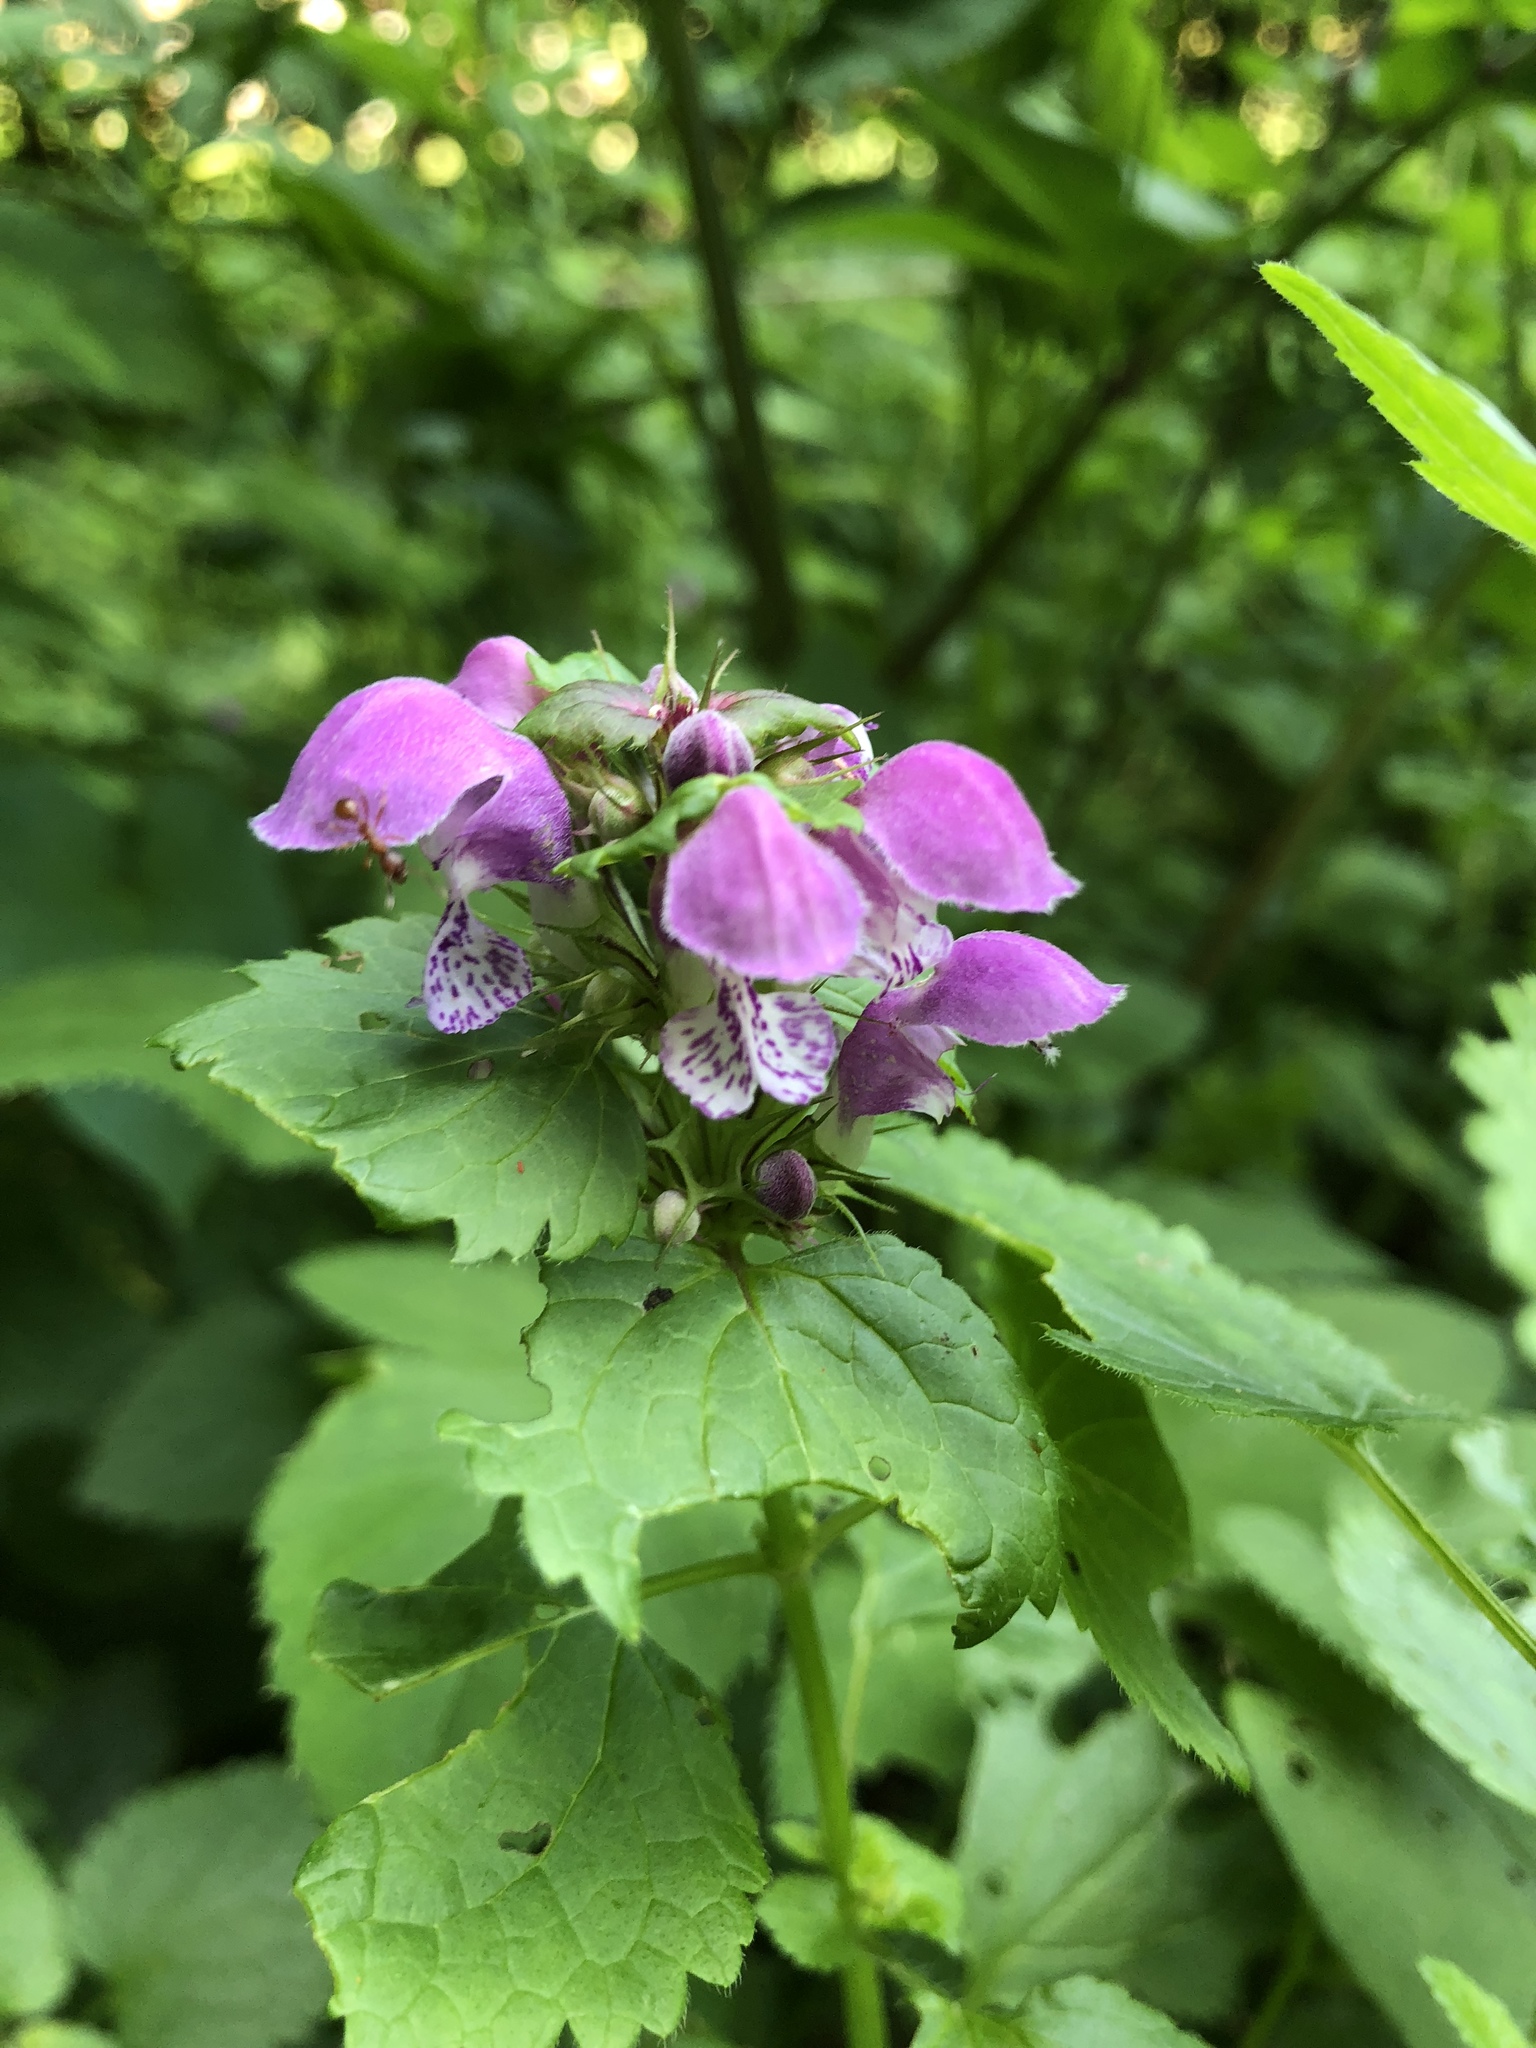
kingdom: Plantae
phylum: Tracheophyta
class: Magnoliopsida
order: Lamiales
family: Lamiaceae
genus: Lamium
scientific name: Lamium maculatum
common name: Spotted dead-nettle
